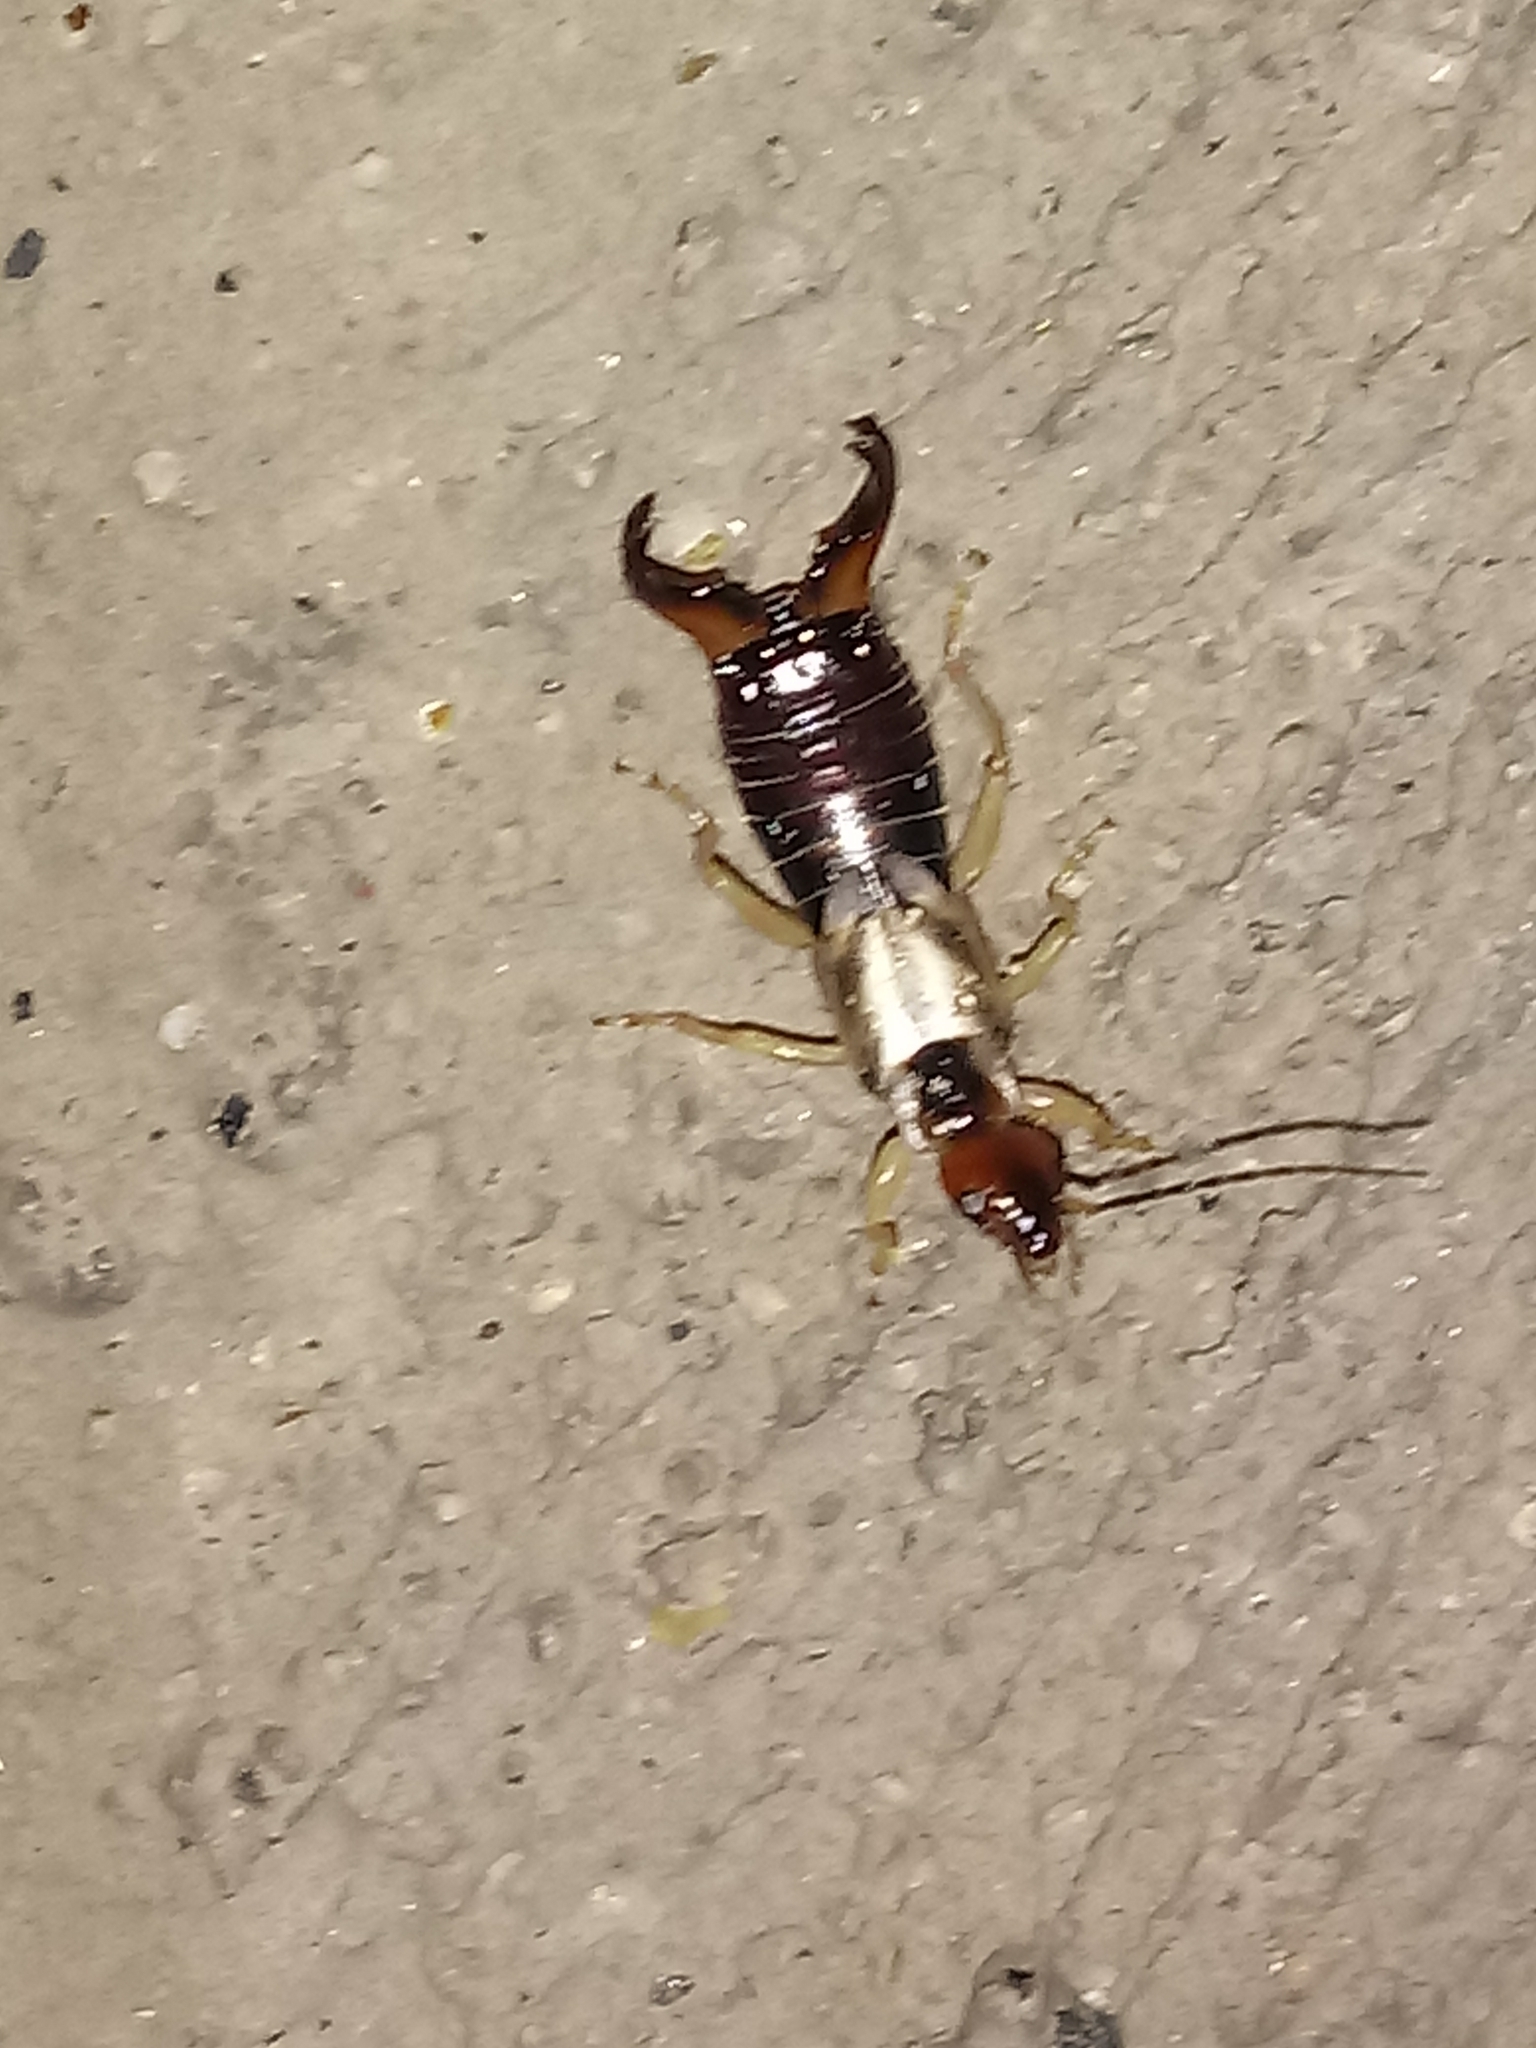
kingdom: Animalia
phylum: Arthropoda
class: Insecta
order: Dermaptera
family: Forficulidae
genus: Forficula
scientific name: Forficula
